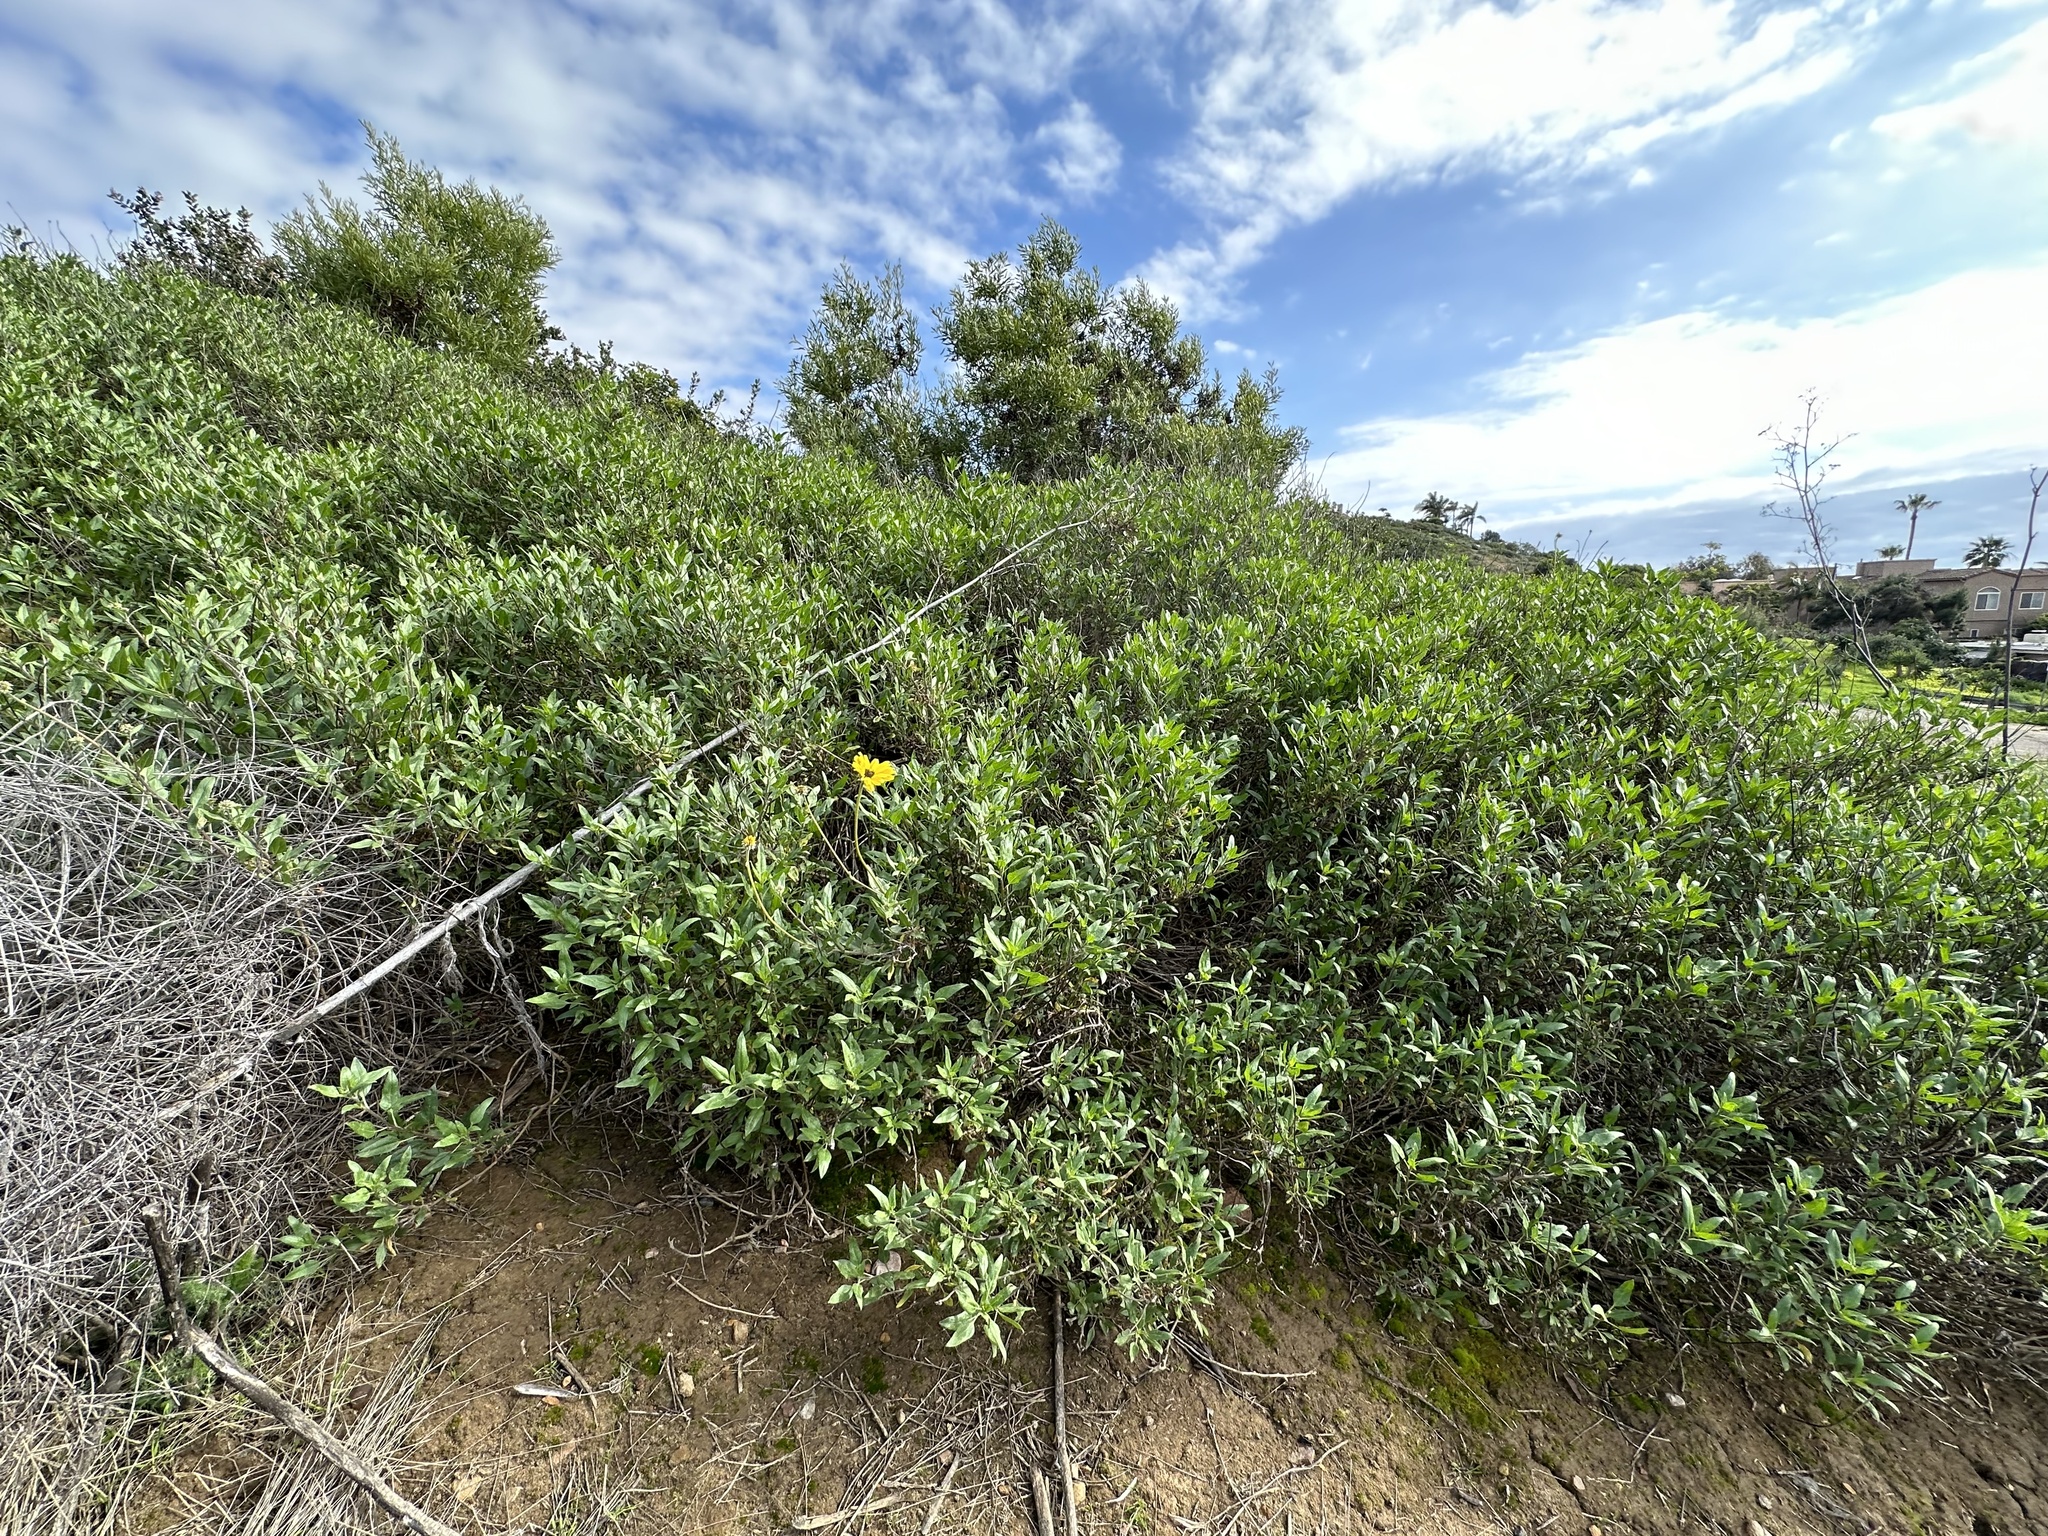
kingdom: Plantae
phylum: Tracheophyta
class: Magnoliopsida
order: Asterales
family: Asteraceae
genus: Encelia
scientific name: Encelia californica
